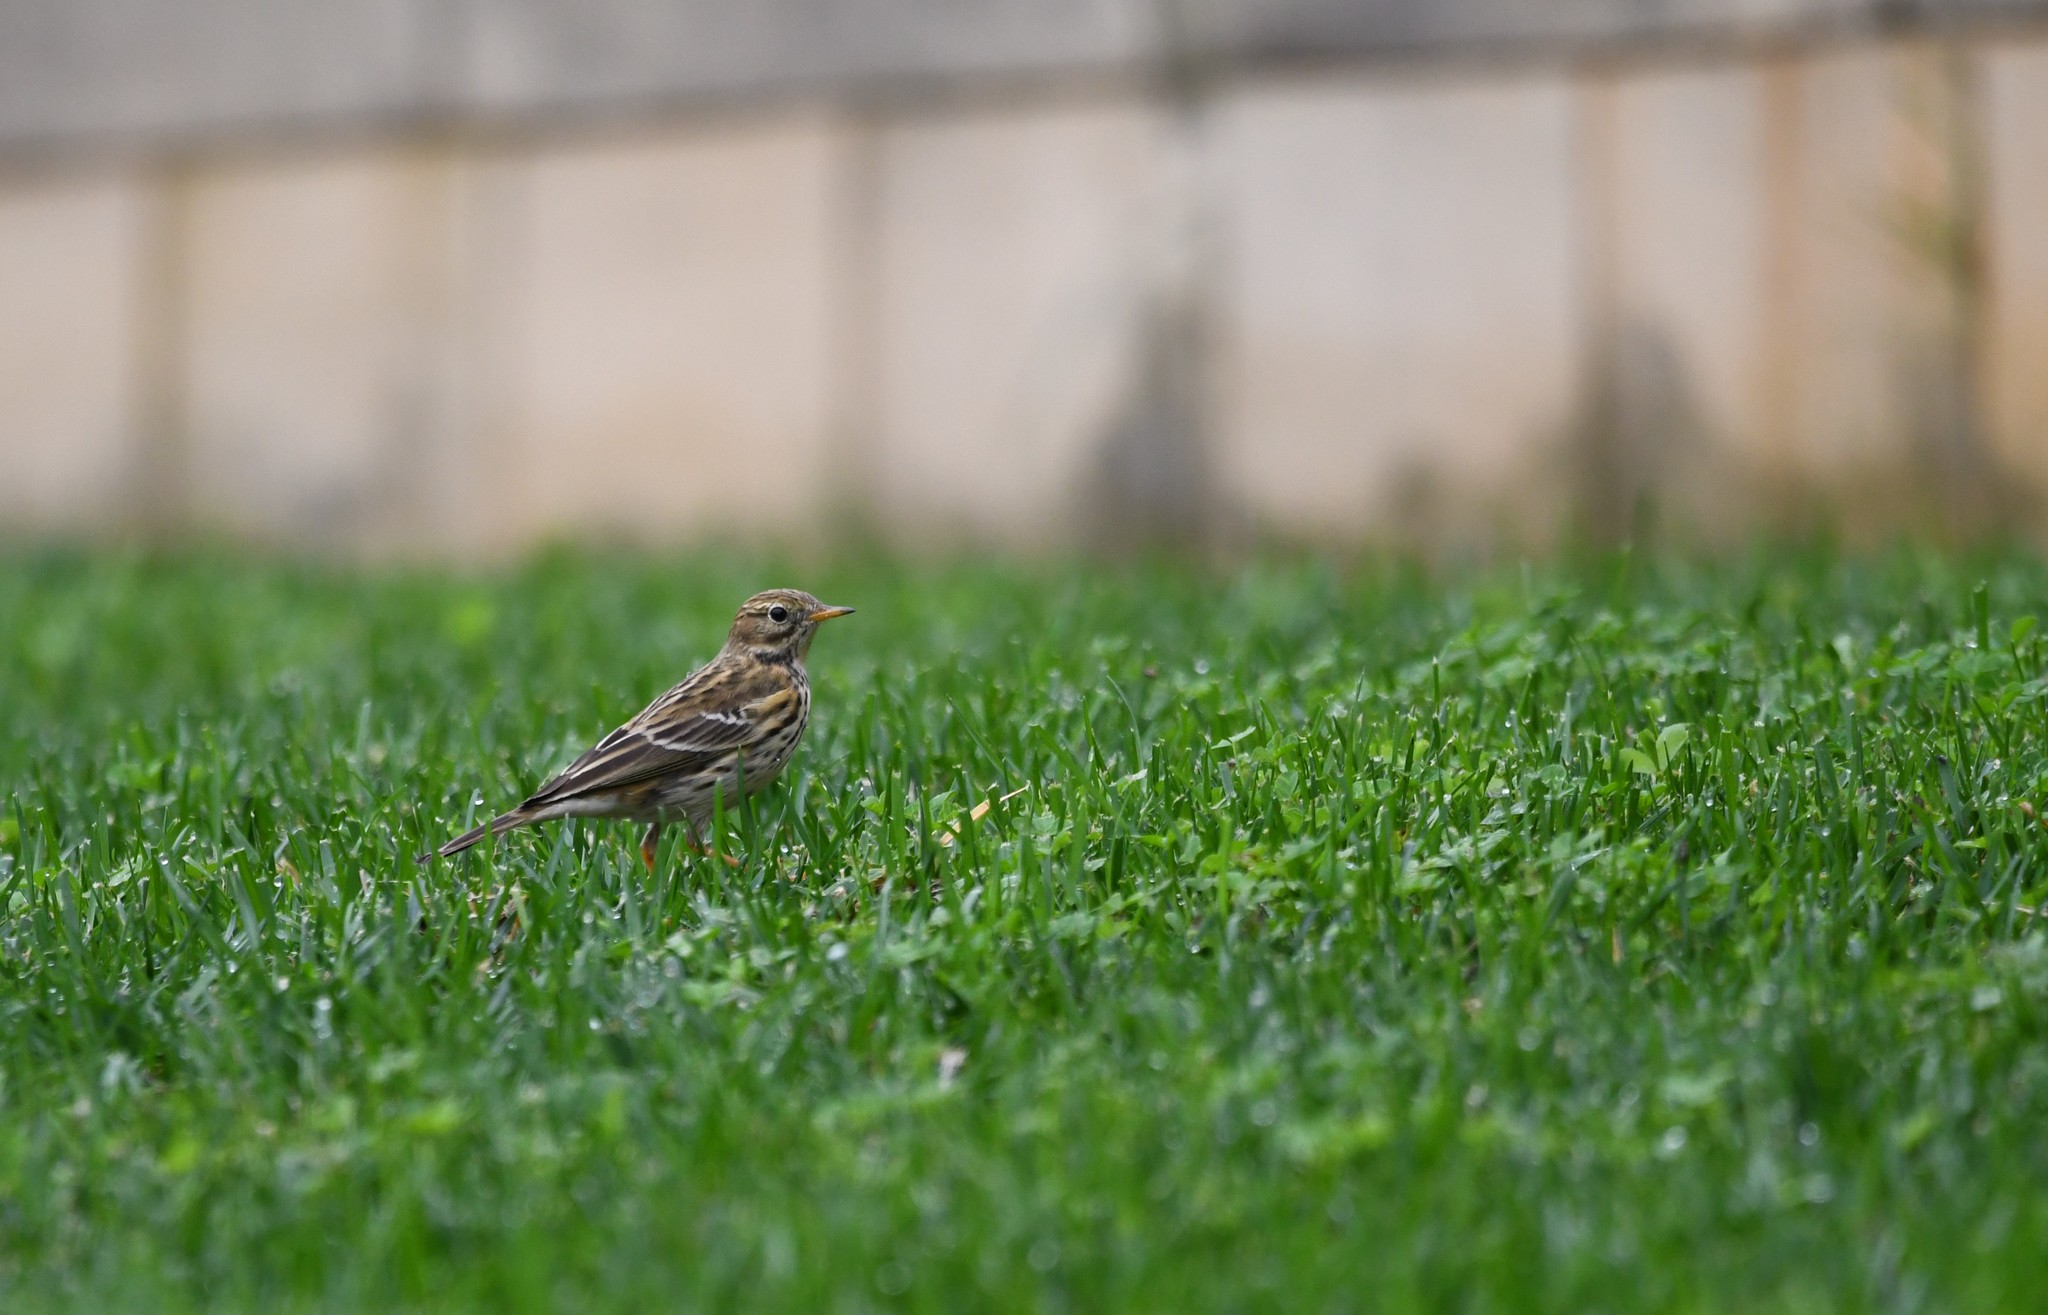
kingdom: Animalia
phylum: Chordata
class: Aves
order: Passeriformes
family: Motacillidae
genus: Anthus
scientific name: Anthus pratensis
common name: Meadow pipit
